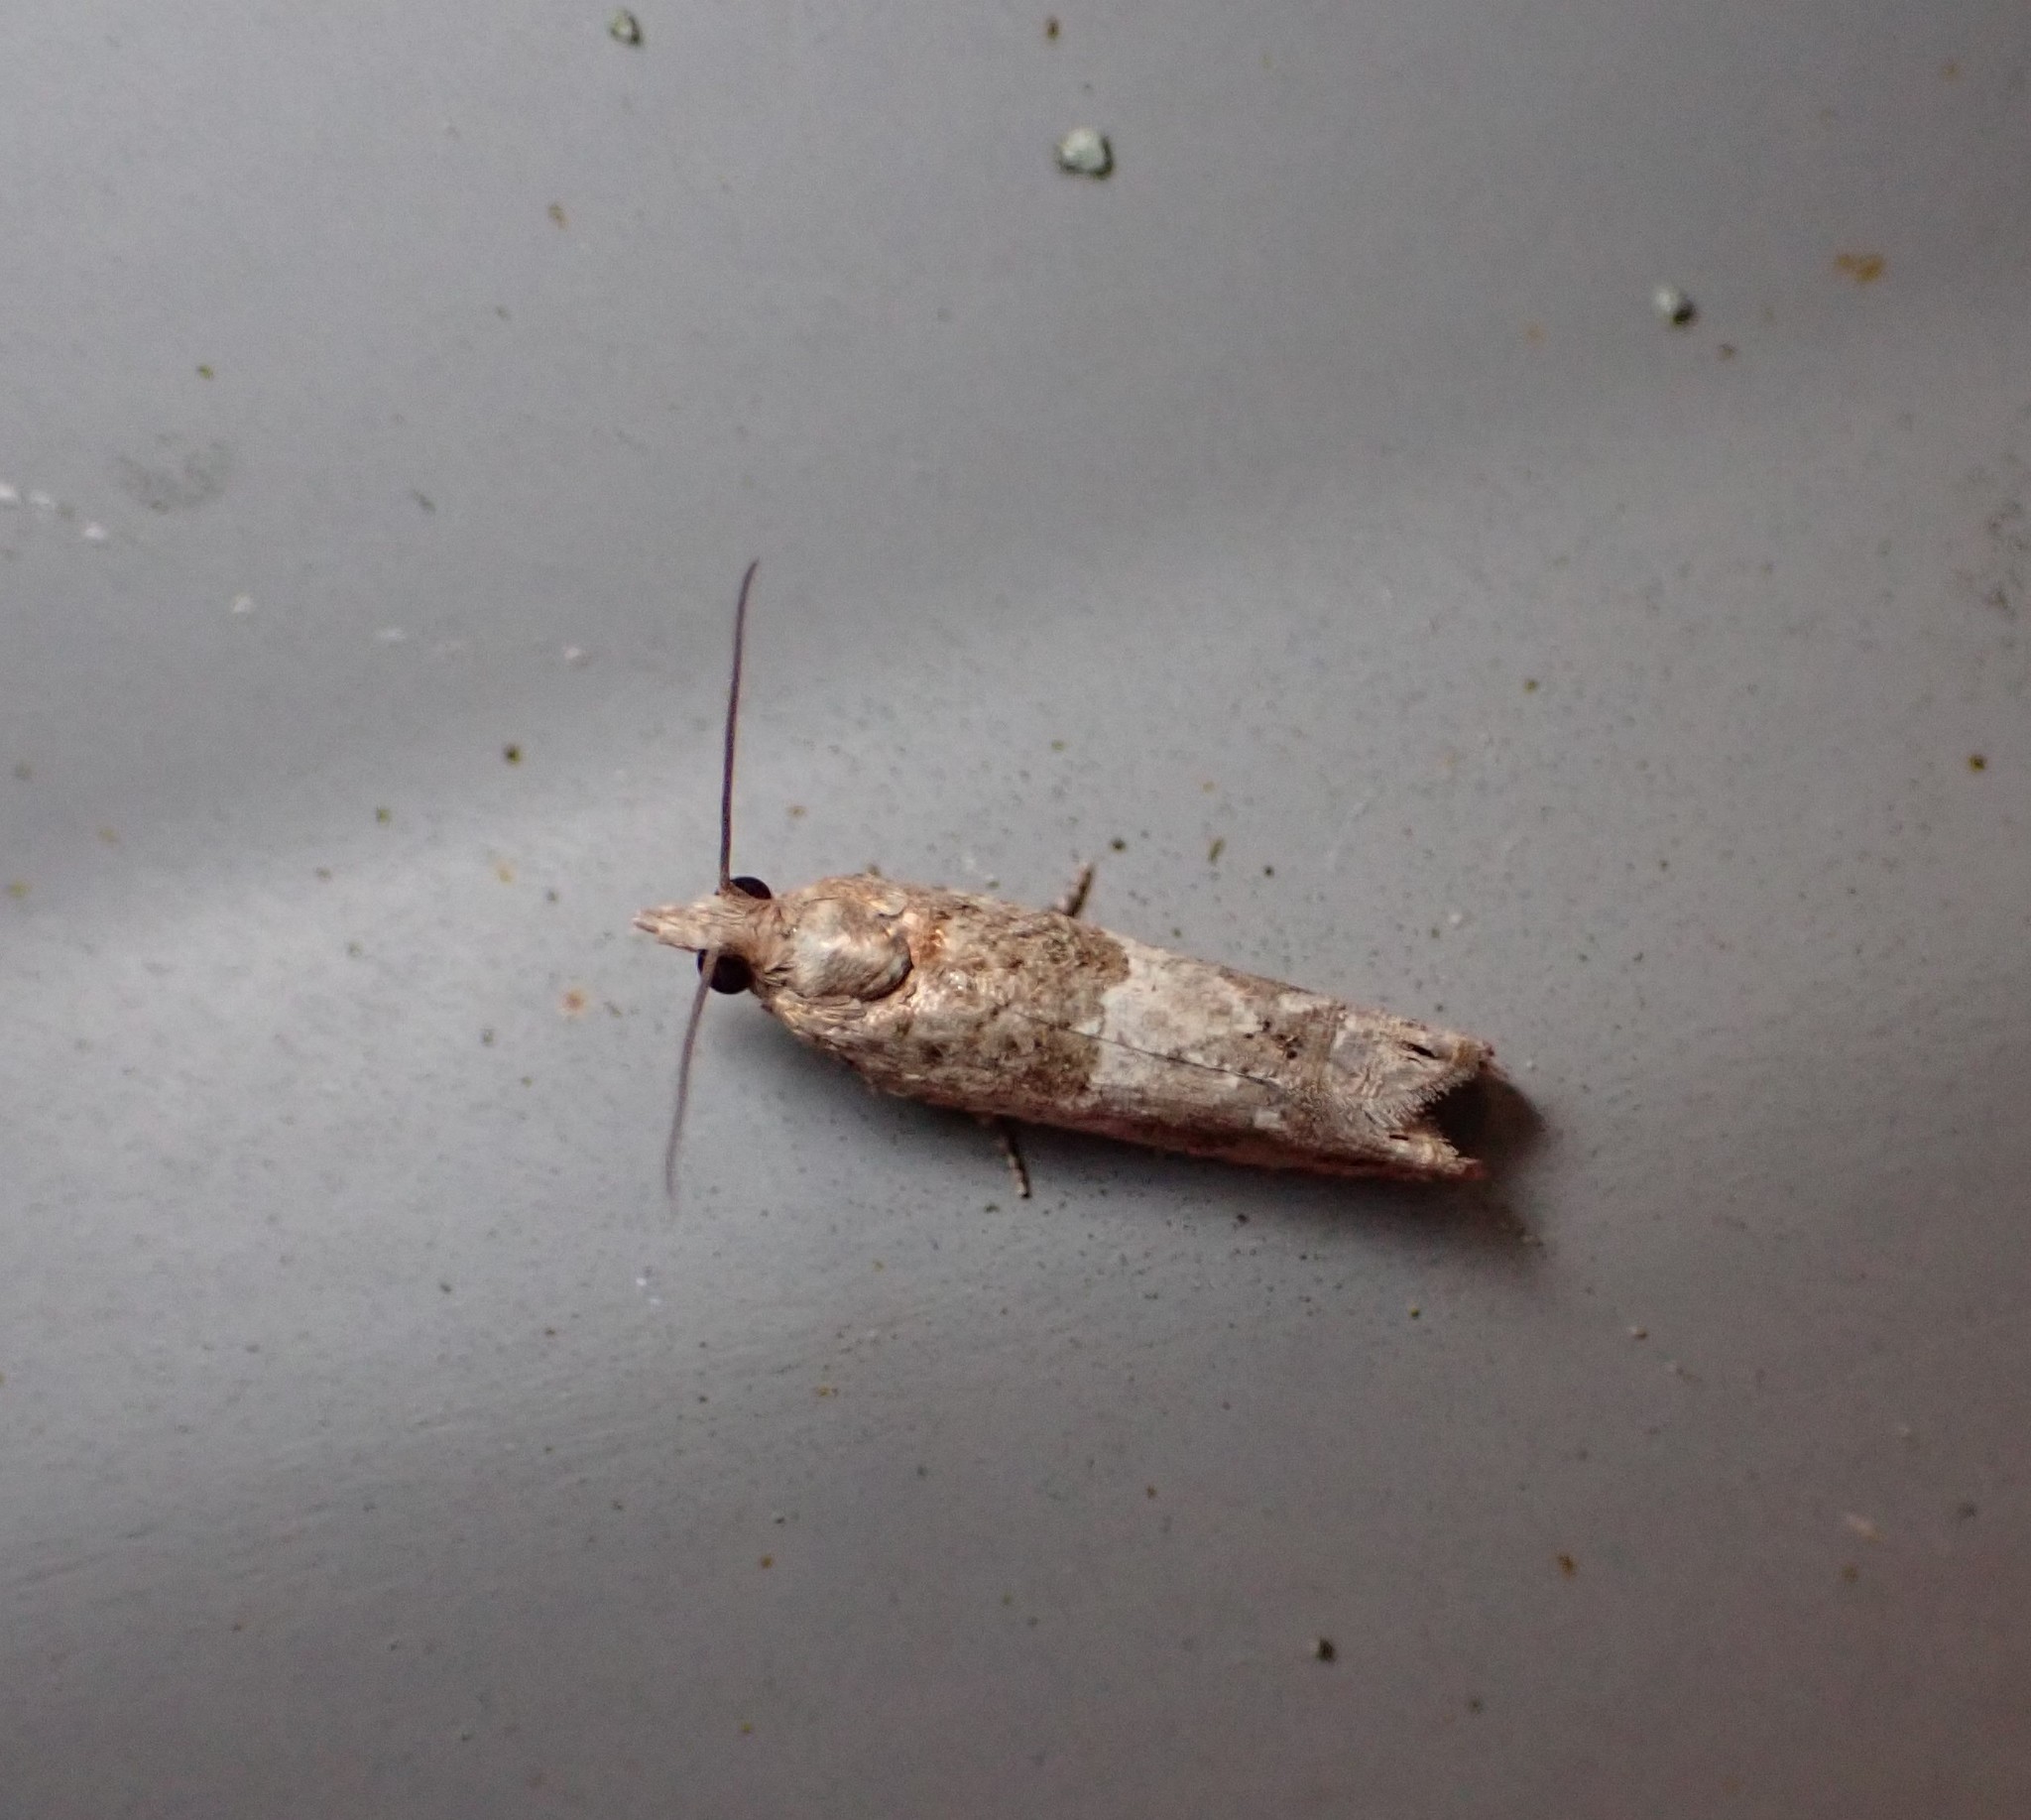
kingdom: Animalia
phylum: Arthropoda
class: Insecta
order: Lepidoptera
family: Tortricidae
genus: Crocidosema
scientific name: Crocidosema plebejana
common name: Southern bell
